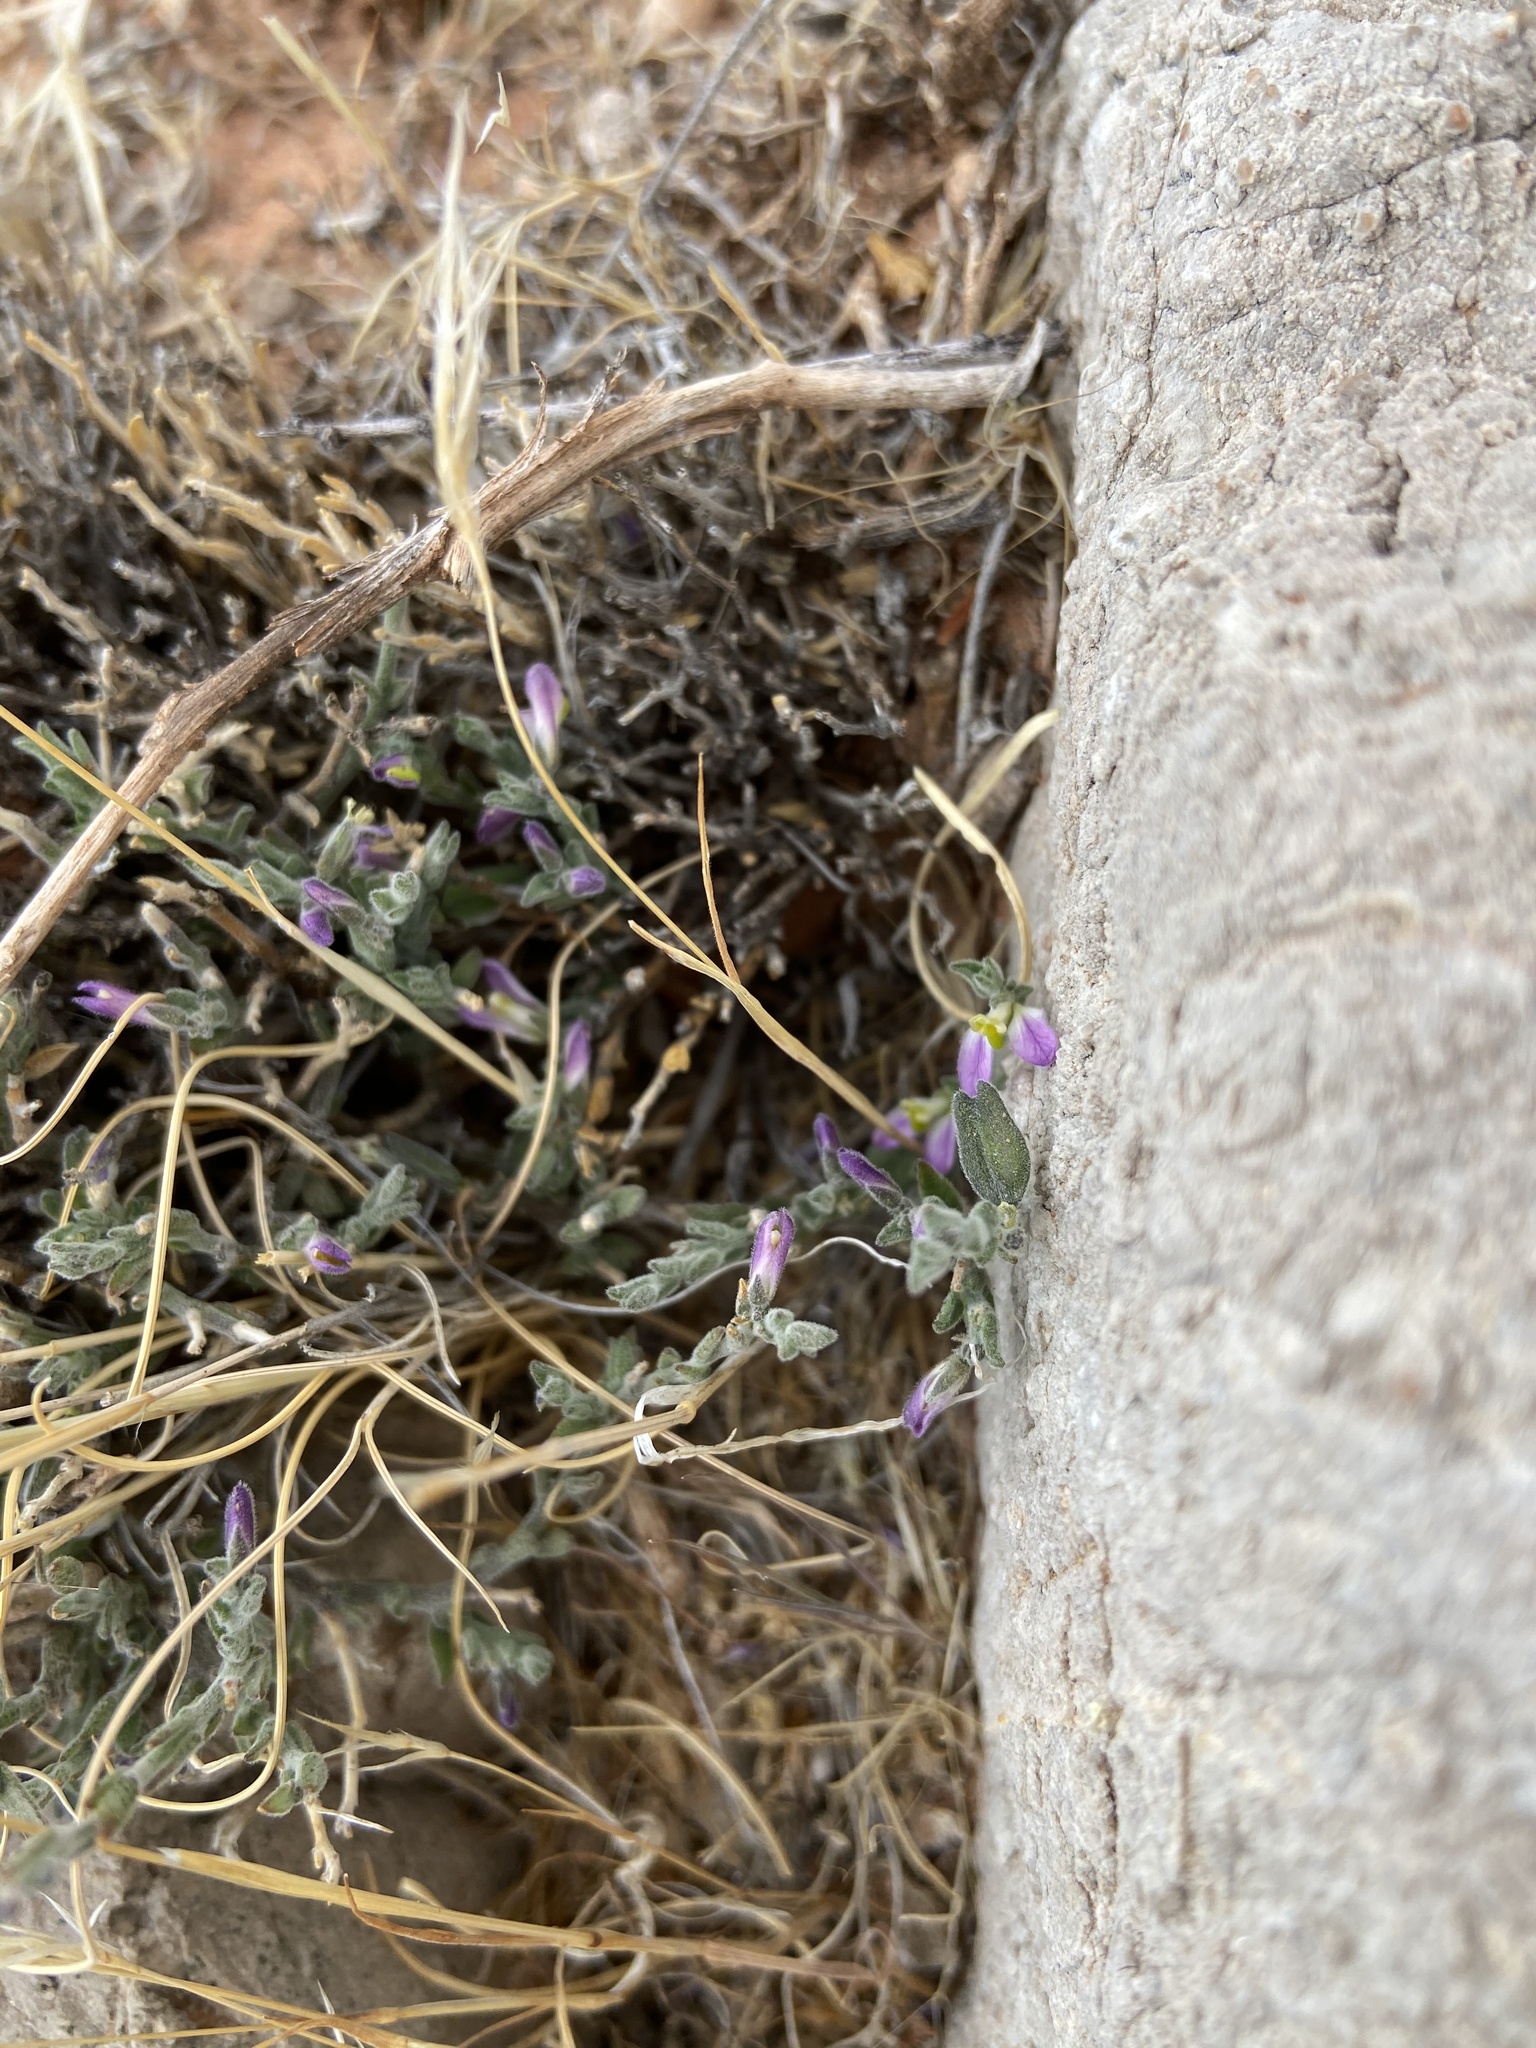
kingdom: Plantae
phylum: Tracheophyta
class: Magnoliopsida
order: Fabales
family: Polygalaceae
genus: Hebecarpa
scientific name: Hebecarpa macradenia
